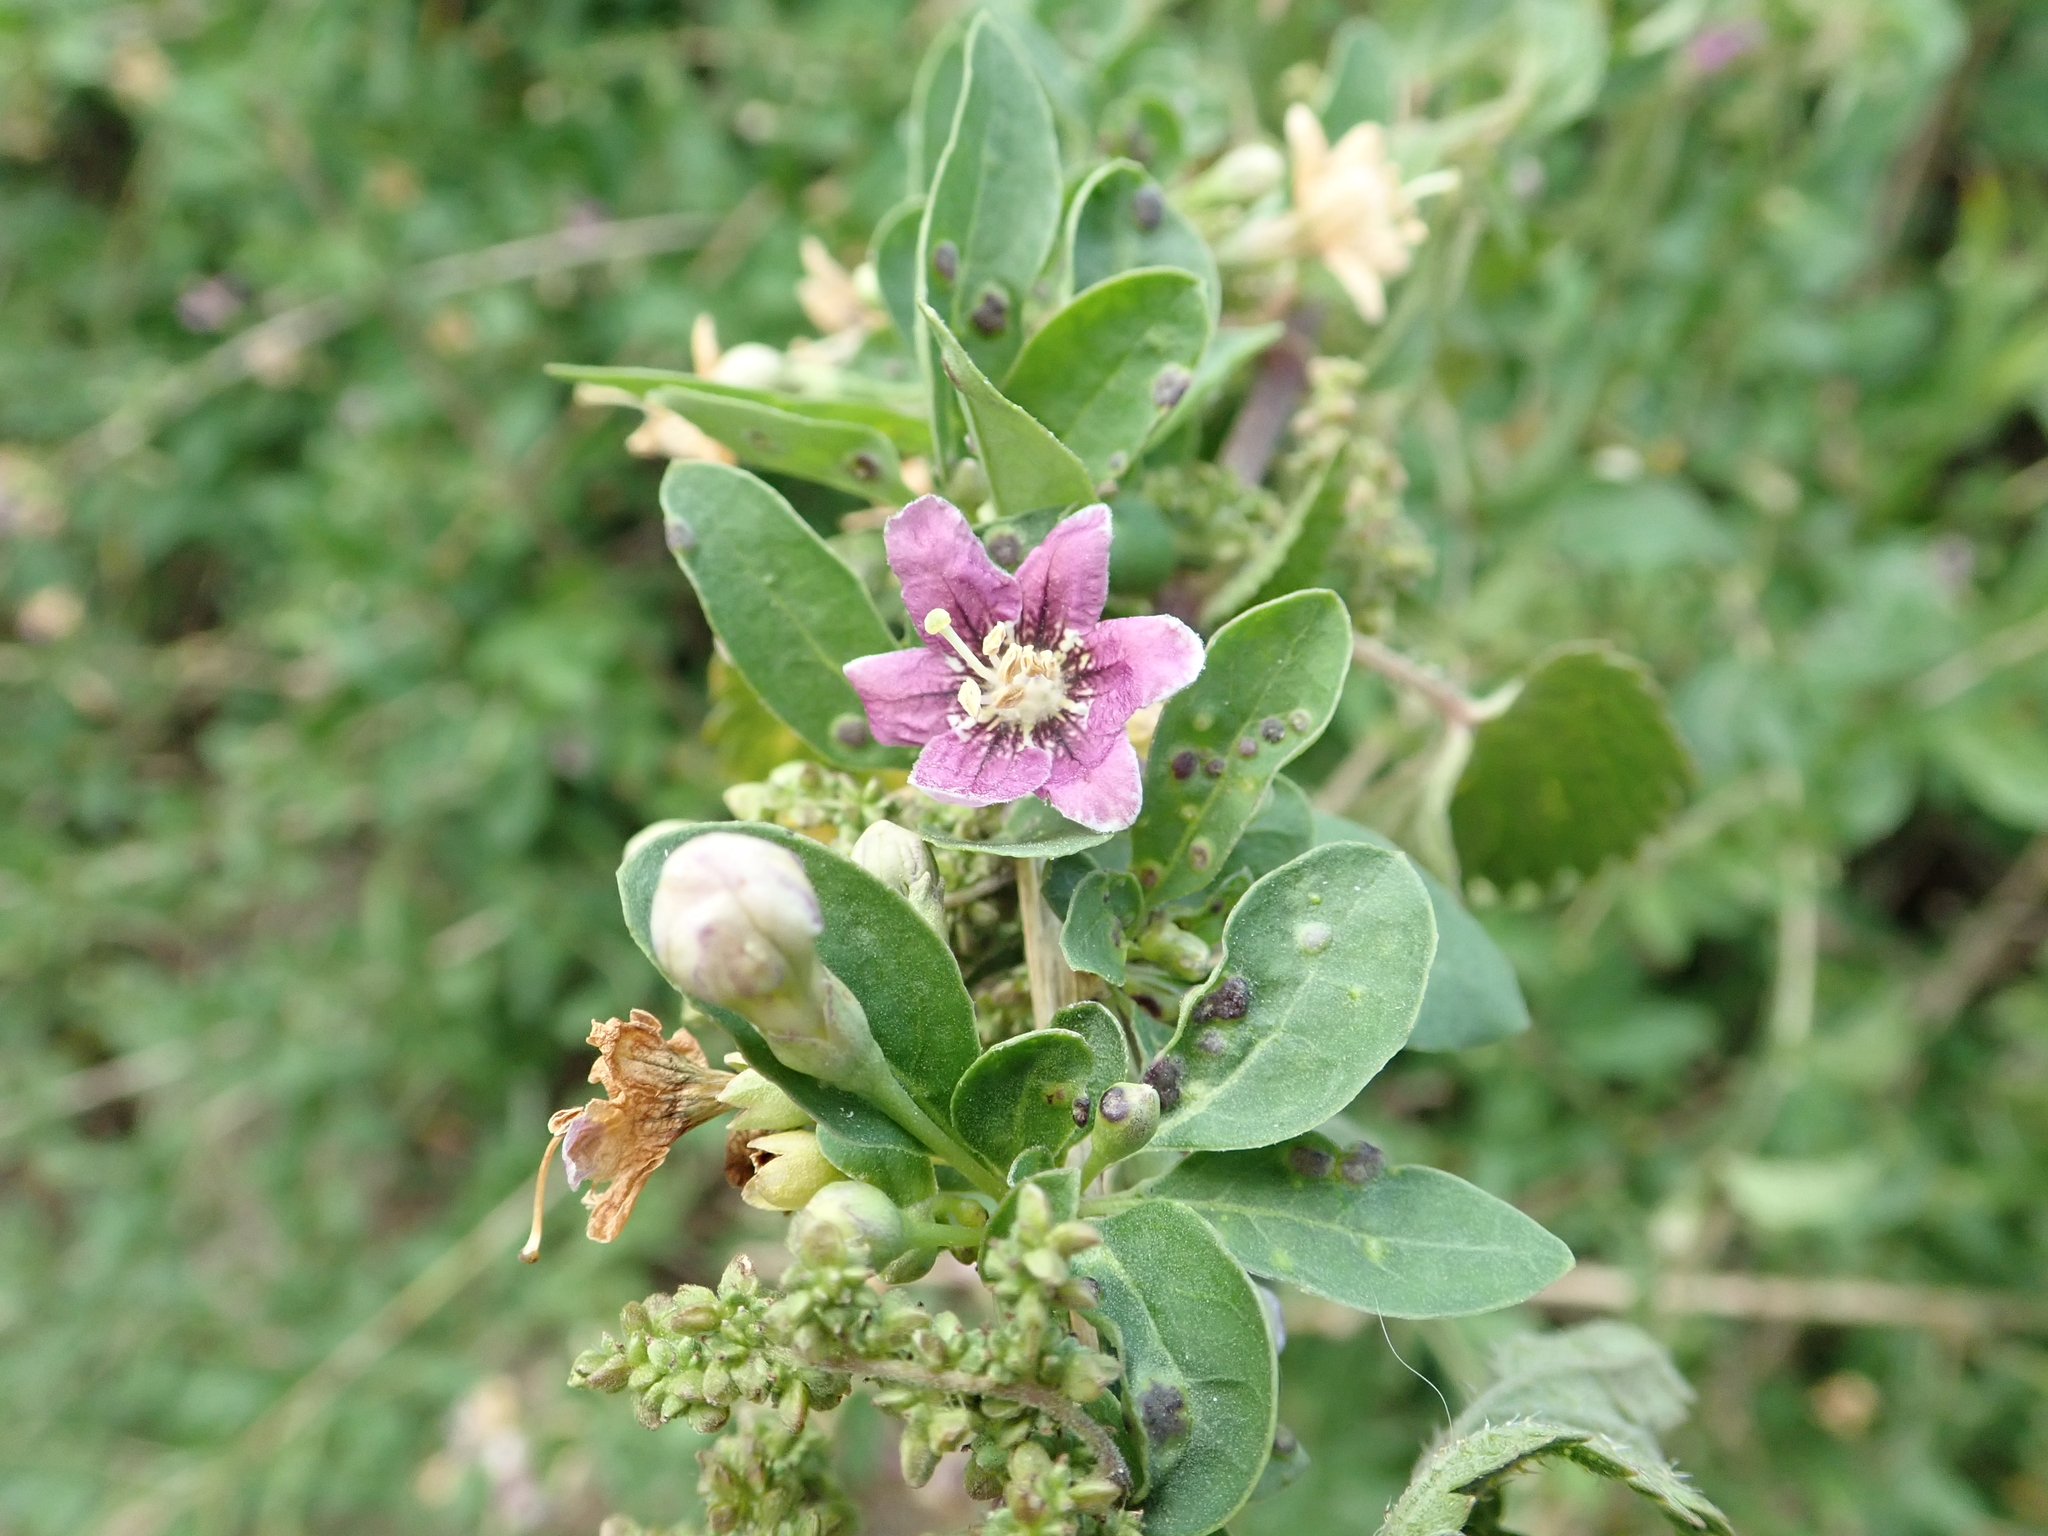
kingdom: Plantae
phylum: Tracheophyta
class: Magnoliopsida
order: Solanales
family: Solanaceae
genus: Lycium
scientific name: Lycium barbarum
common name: Duke of argyll's teaplant
